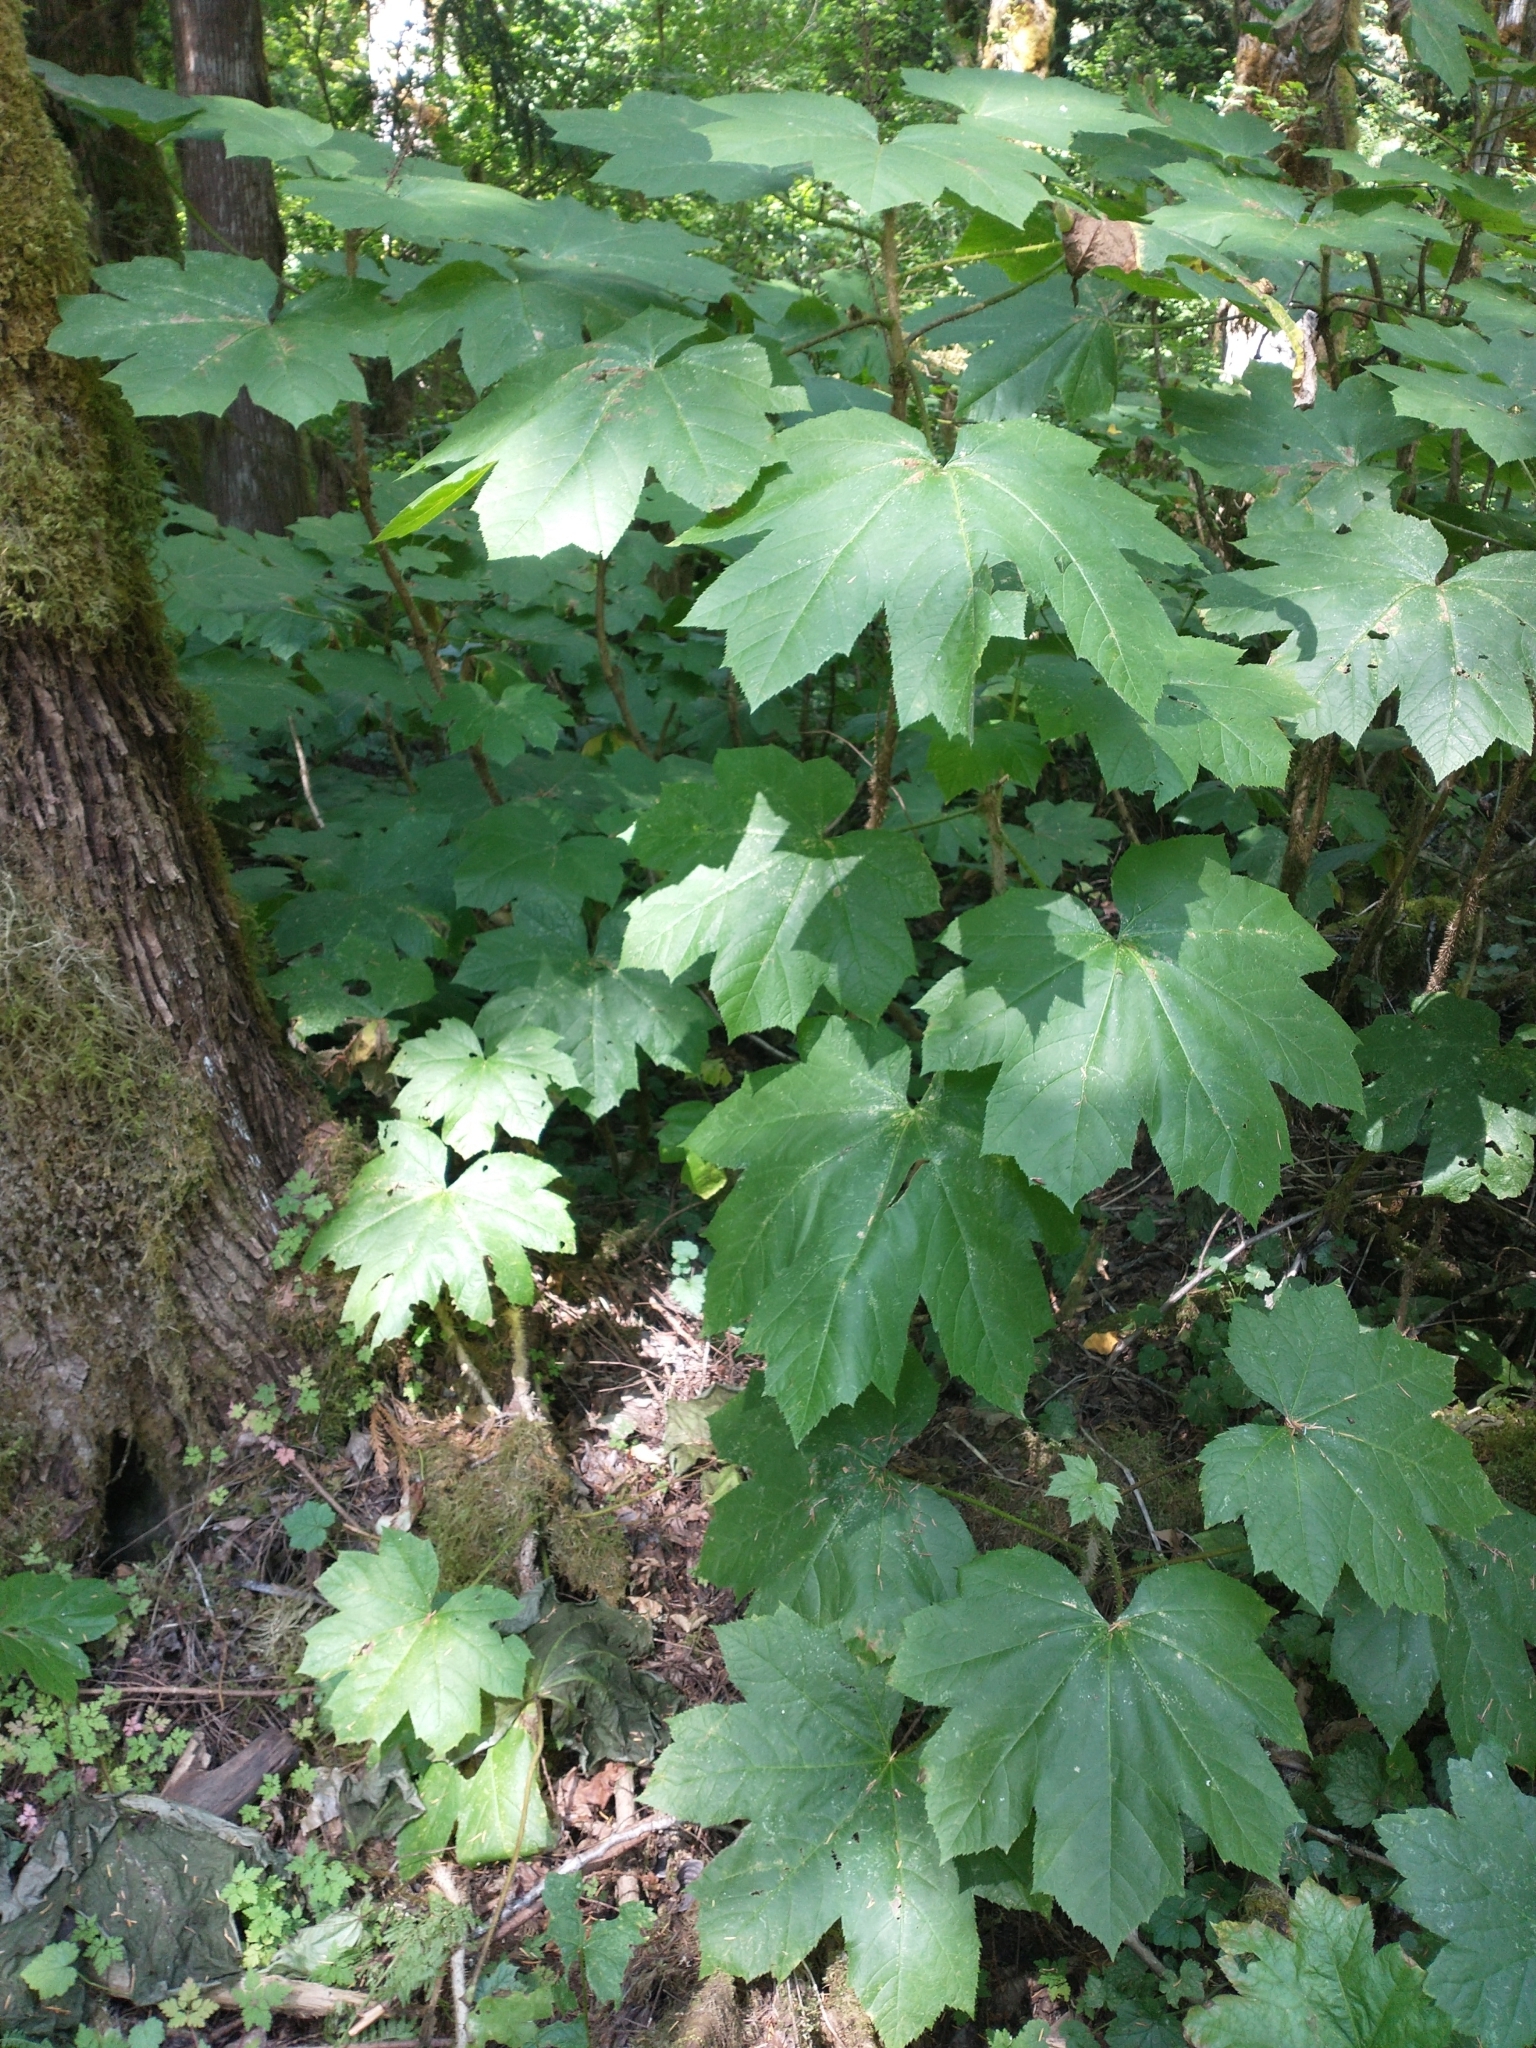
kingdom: Plantae
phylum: Tracheophyta
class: Magnoliopsida
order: Apiales
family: Araliaceae
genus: Oplopanax
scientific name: Oplopanax horridus
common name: Devil's walking-stick
